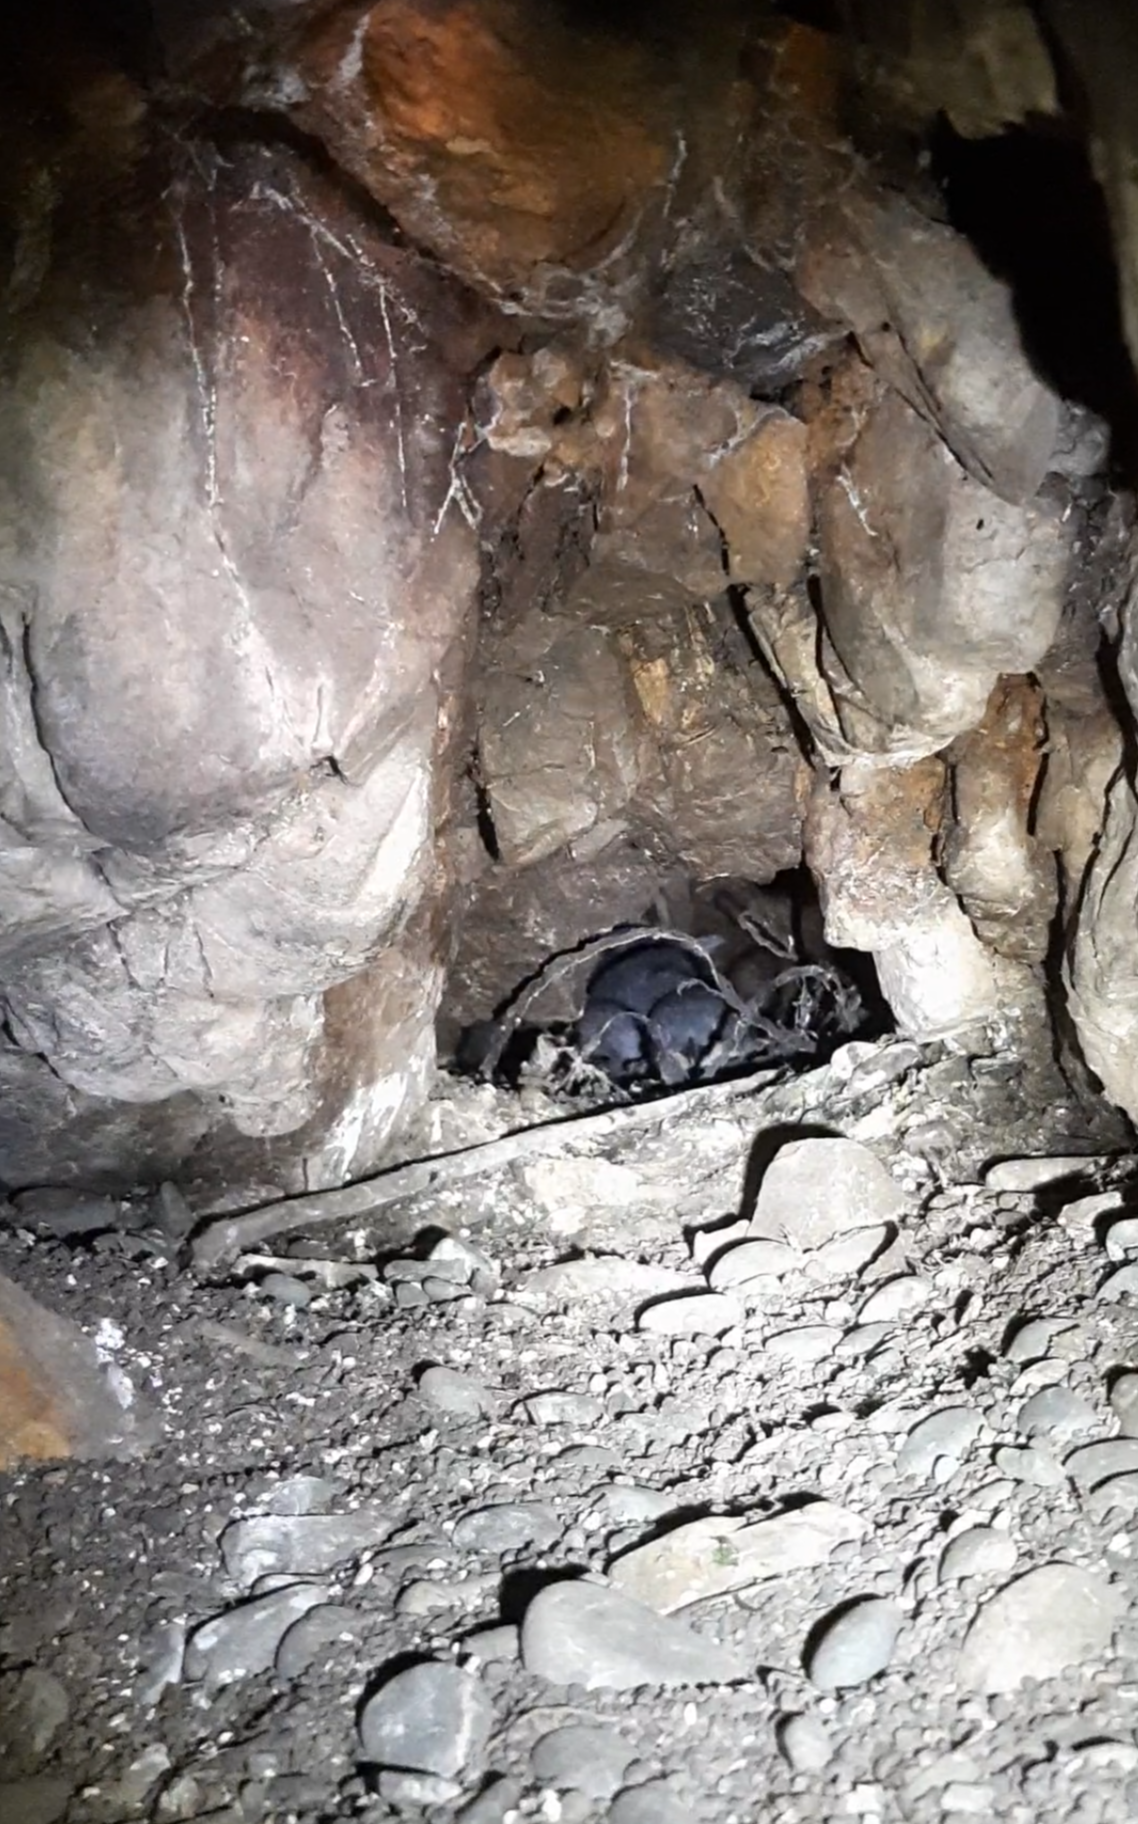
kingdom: Animalia
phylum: Chordata
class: Aves
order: Sphenisciformes
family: Spheniscidae
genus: Eudyptula
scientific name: Eudyptula minor
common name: Little penguin
